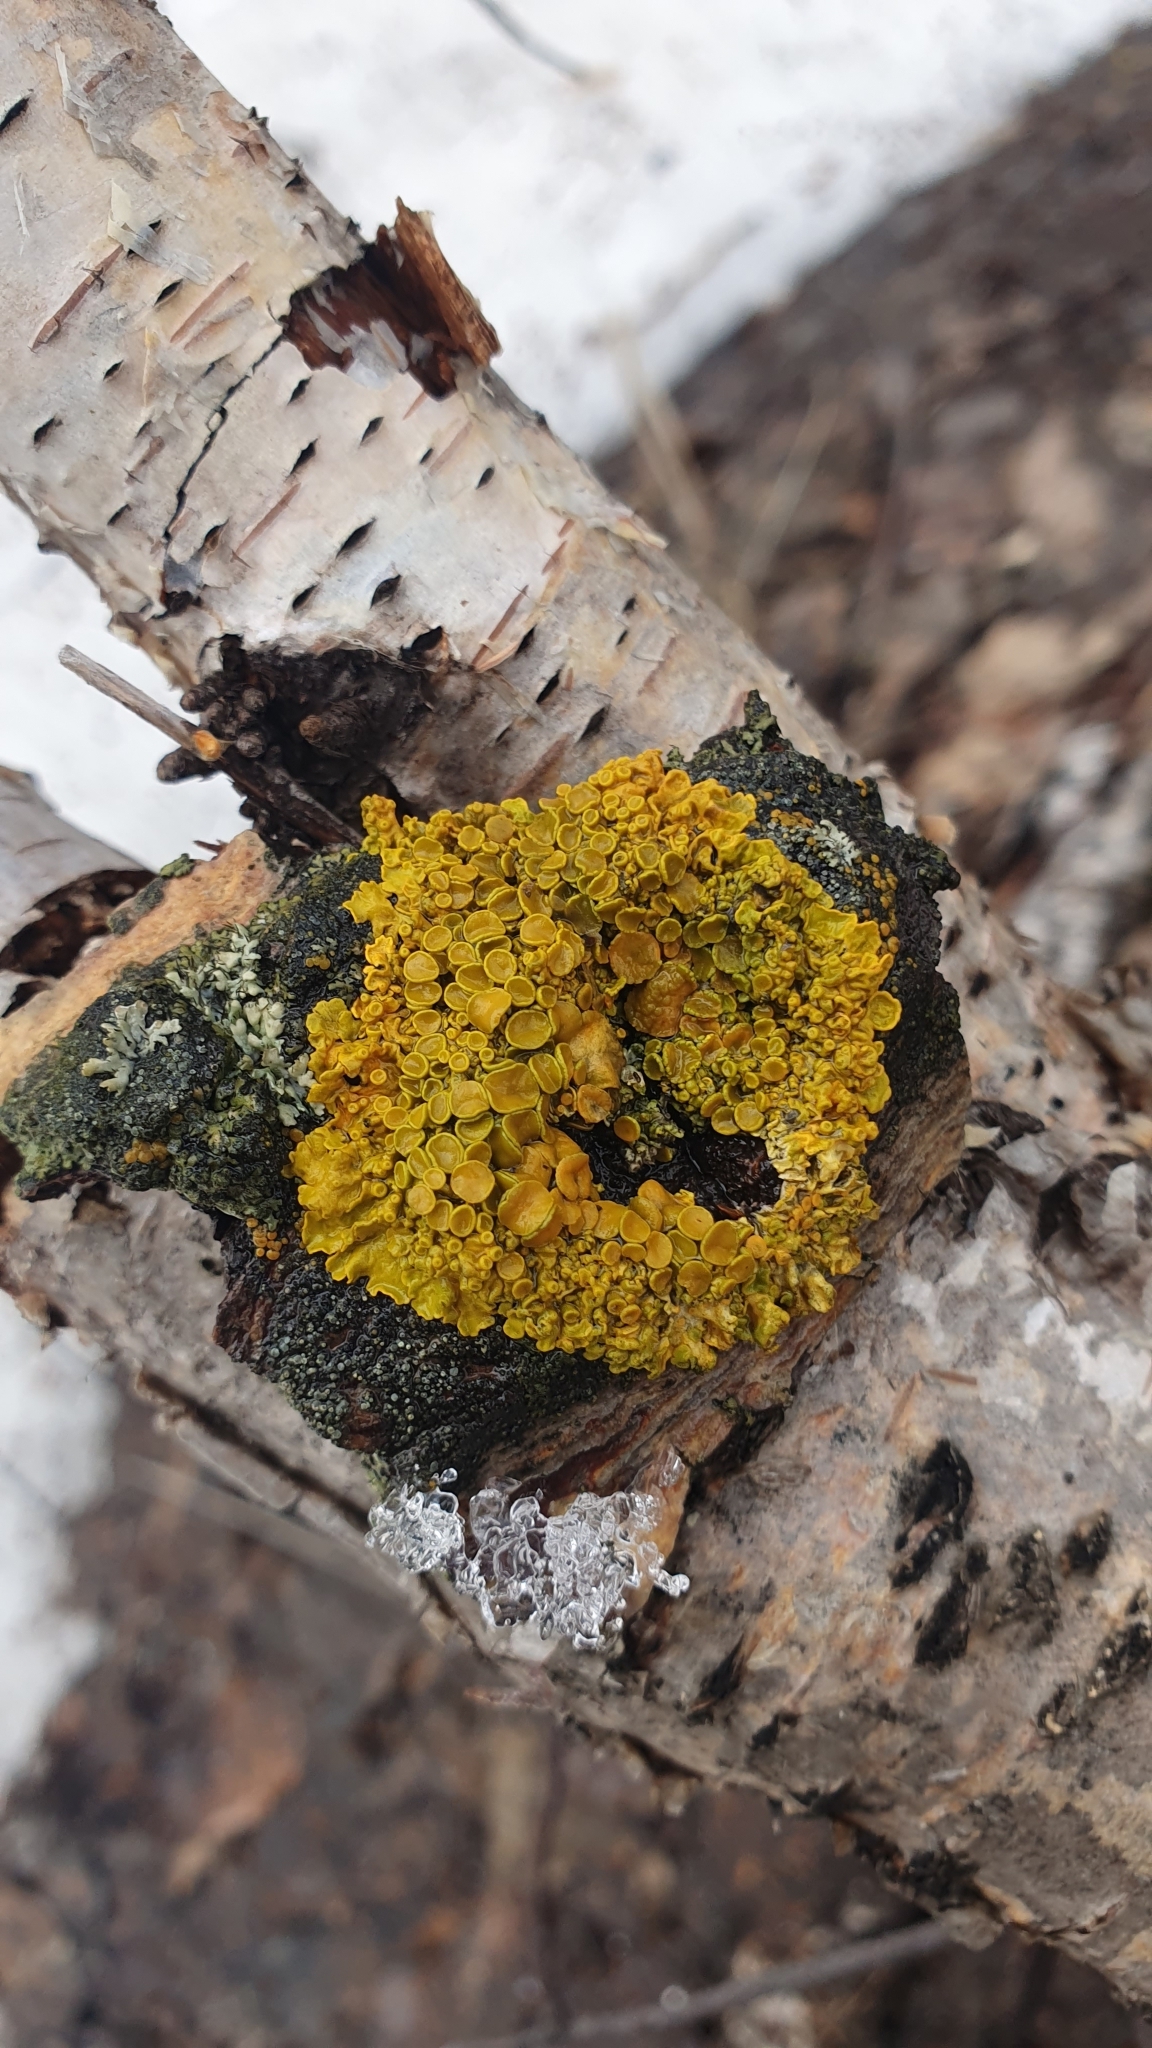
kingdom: Fungi
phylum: Ascomycota
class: Lecanoromycetes
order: Teloschistales
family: Teloschistaceae
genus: Xanthoria
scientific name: Xanthoria parietina
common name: Common orange lichen
